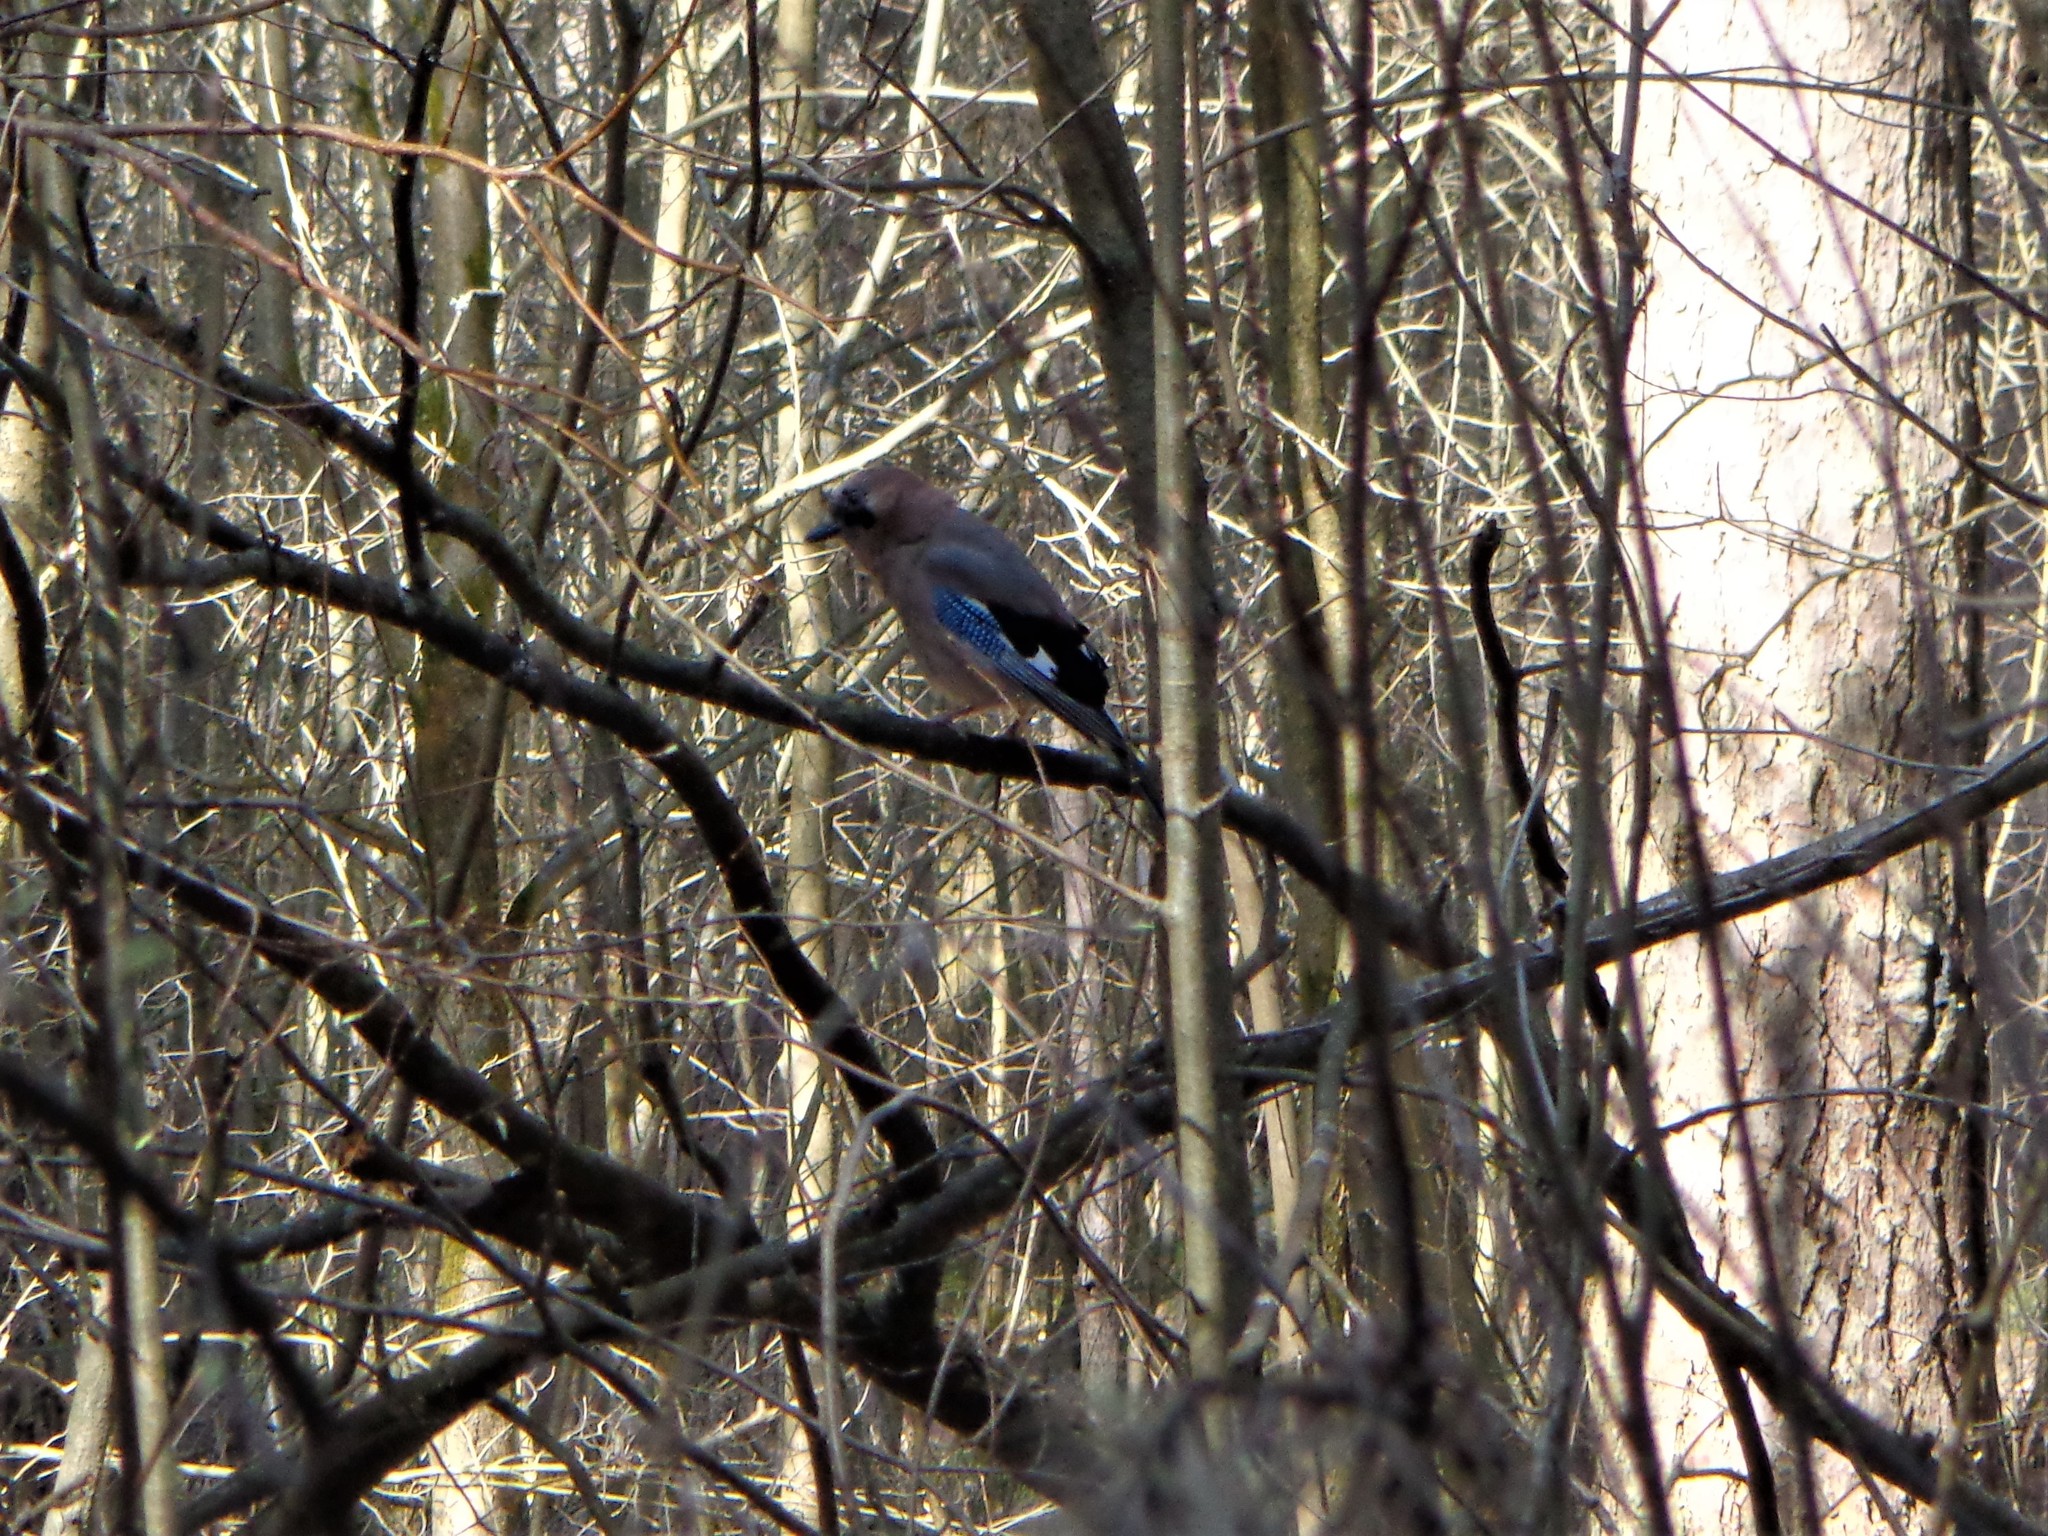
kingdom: Animalia
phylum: Chordata
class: Aves
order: Passeriformes
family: Corvidae
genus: Garrulus
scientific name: Garrulus glandarius
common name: Eurasian jay
